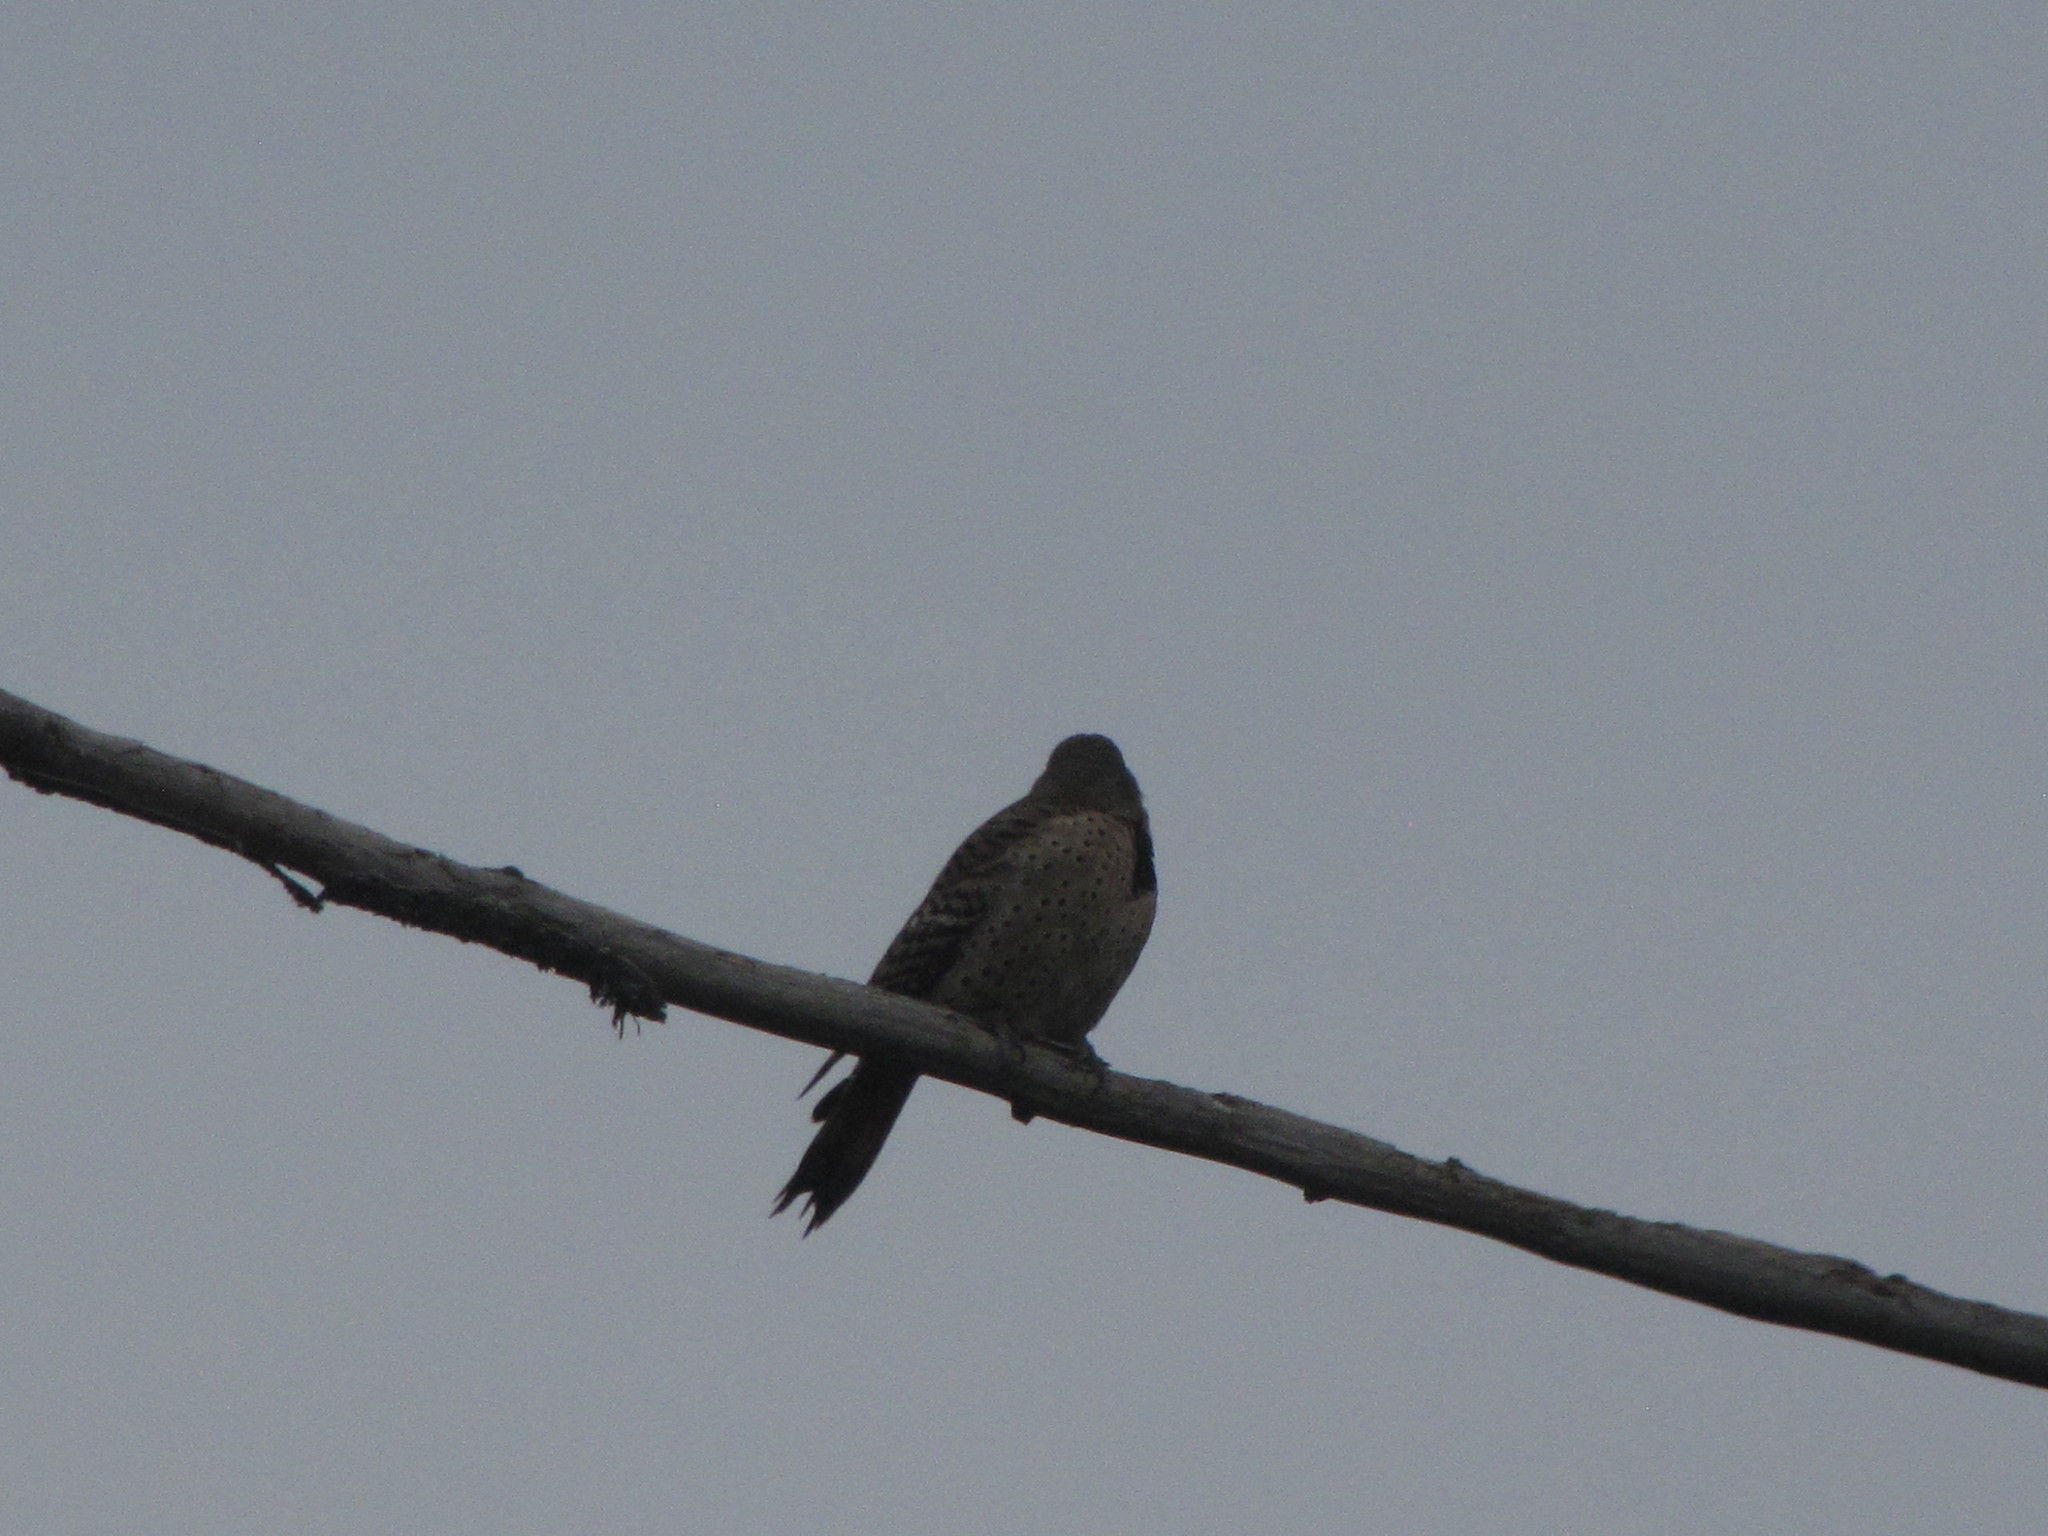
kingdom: Animalia
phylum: Chordata
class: Aves
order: Piciformes
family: Picidae
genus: Colaptes
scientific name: Colaptes auratus
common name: Northern flicker
